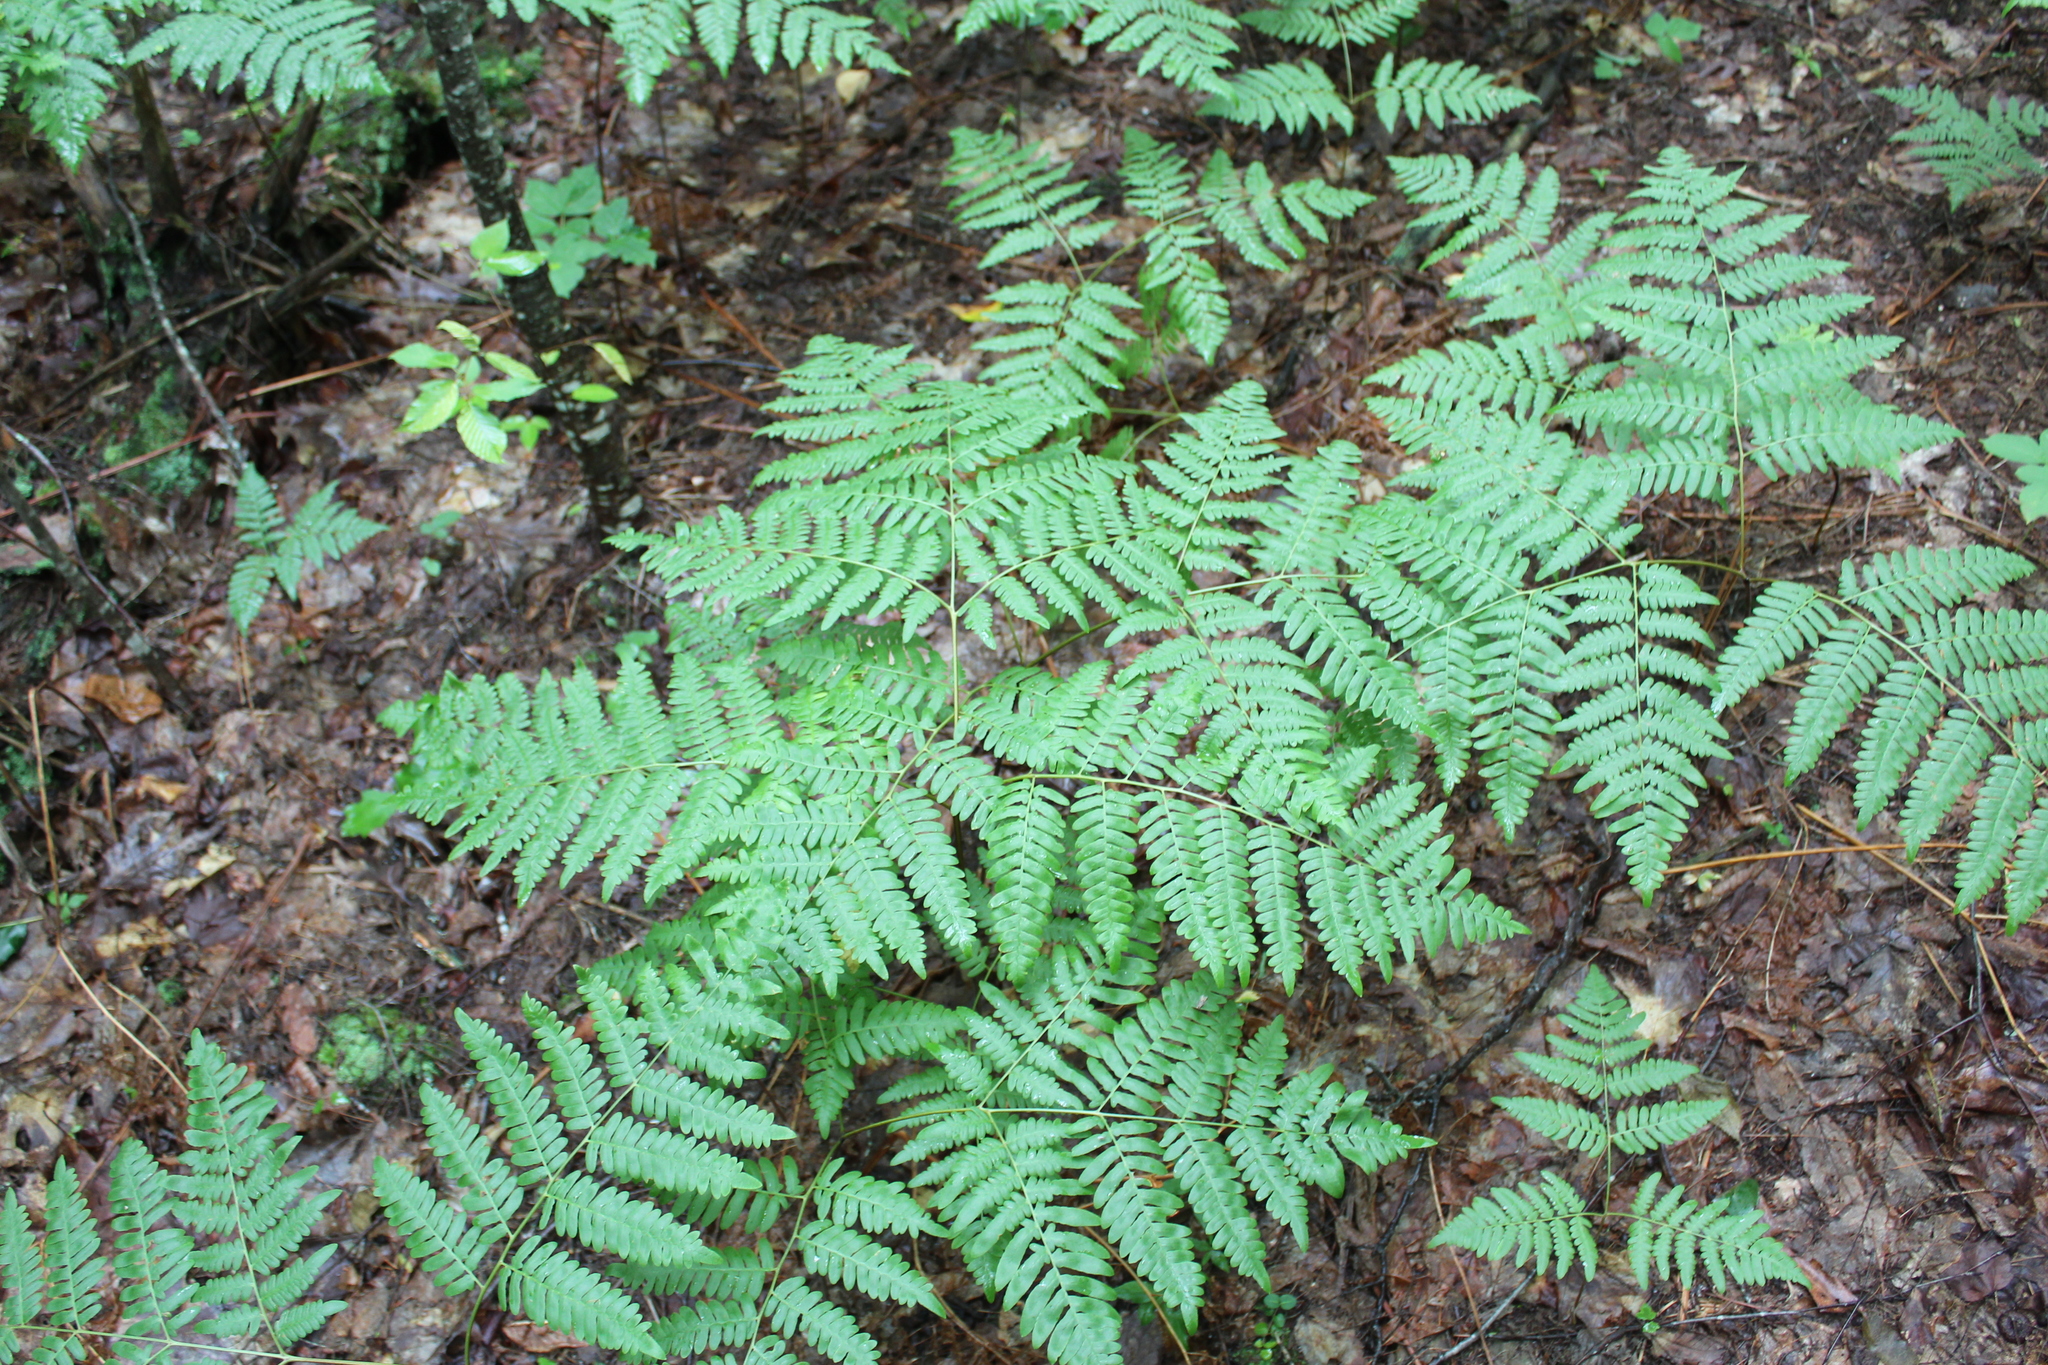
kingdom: Plantae
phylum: Tracheophyta
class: Polypodiopsida
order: Polypodiales
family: Dennstaedtiaceae
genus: Pteridium
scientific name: Pteridium aquilinum
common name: Bracken
